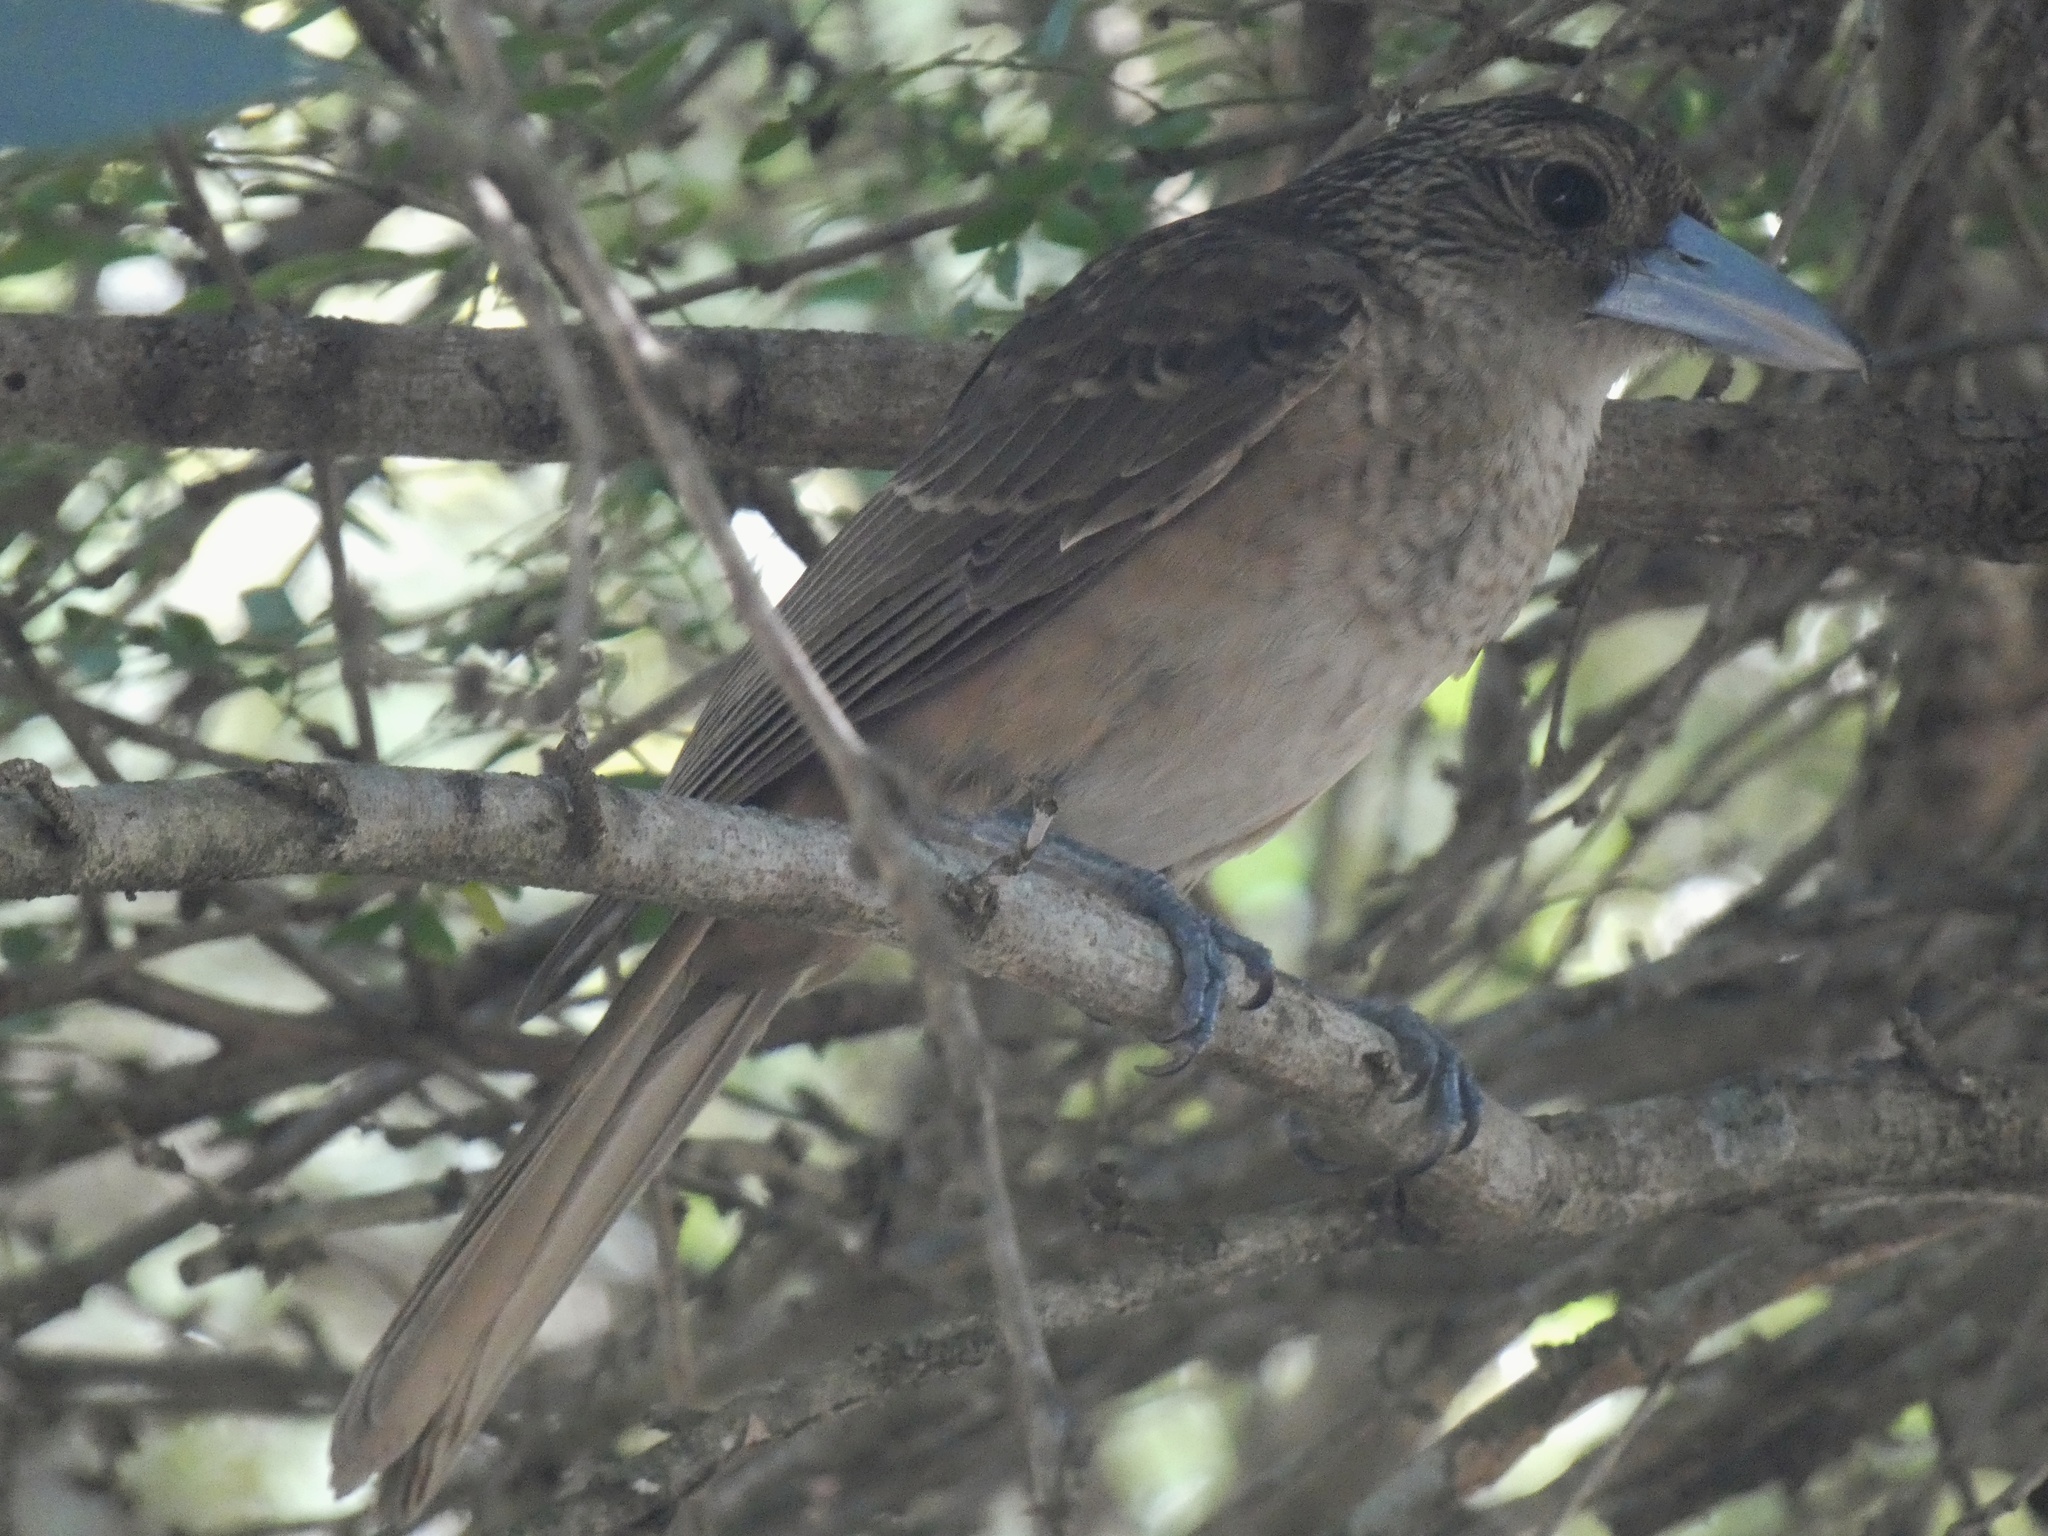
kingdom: Animalia
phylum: Chordata
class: Aves
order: Passeriformes
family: Artamidae
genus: Melloria
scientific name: Melloria quoyi
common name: Black butcherbird
